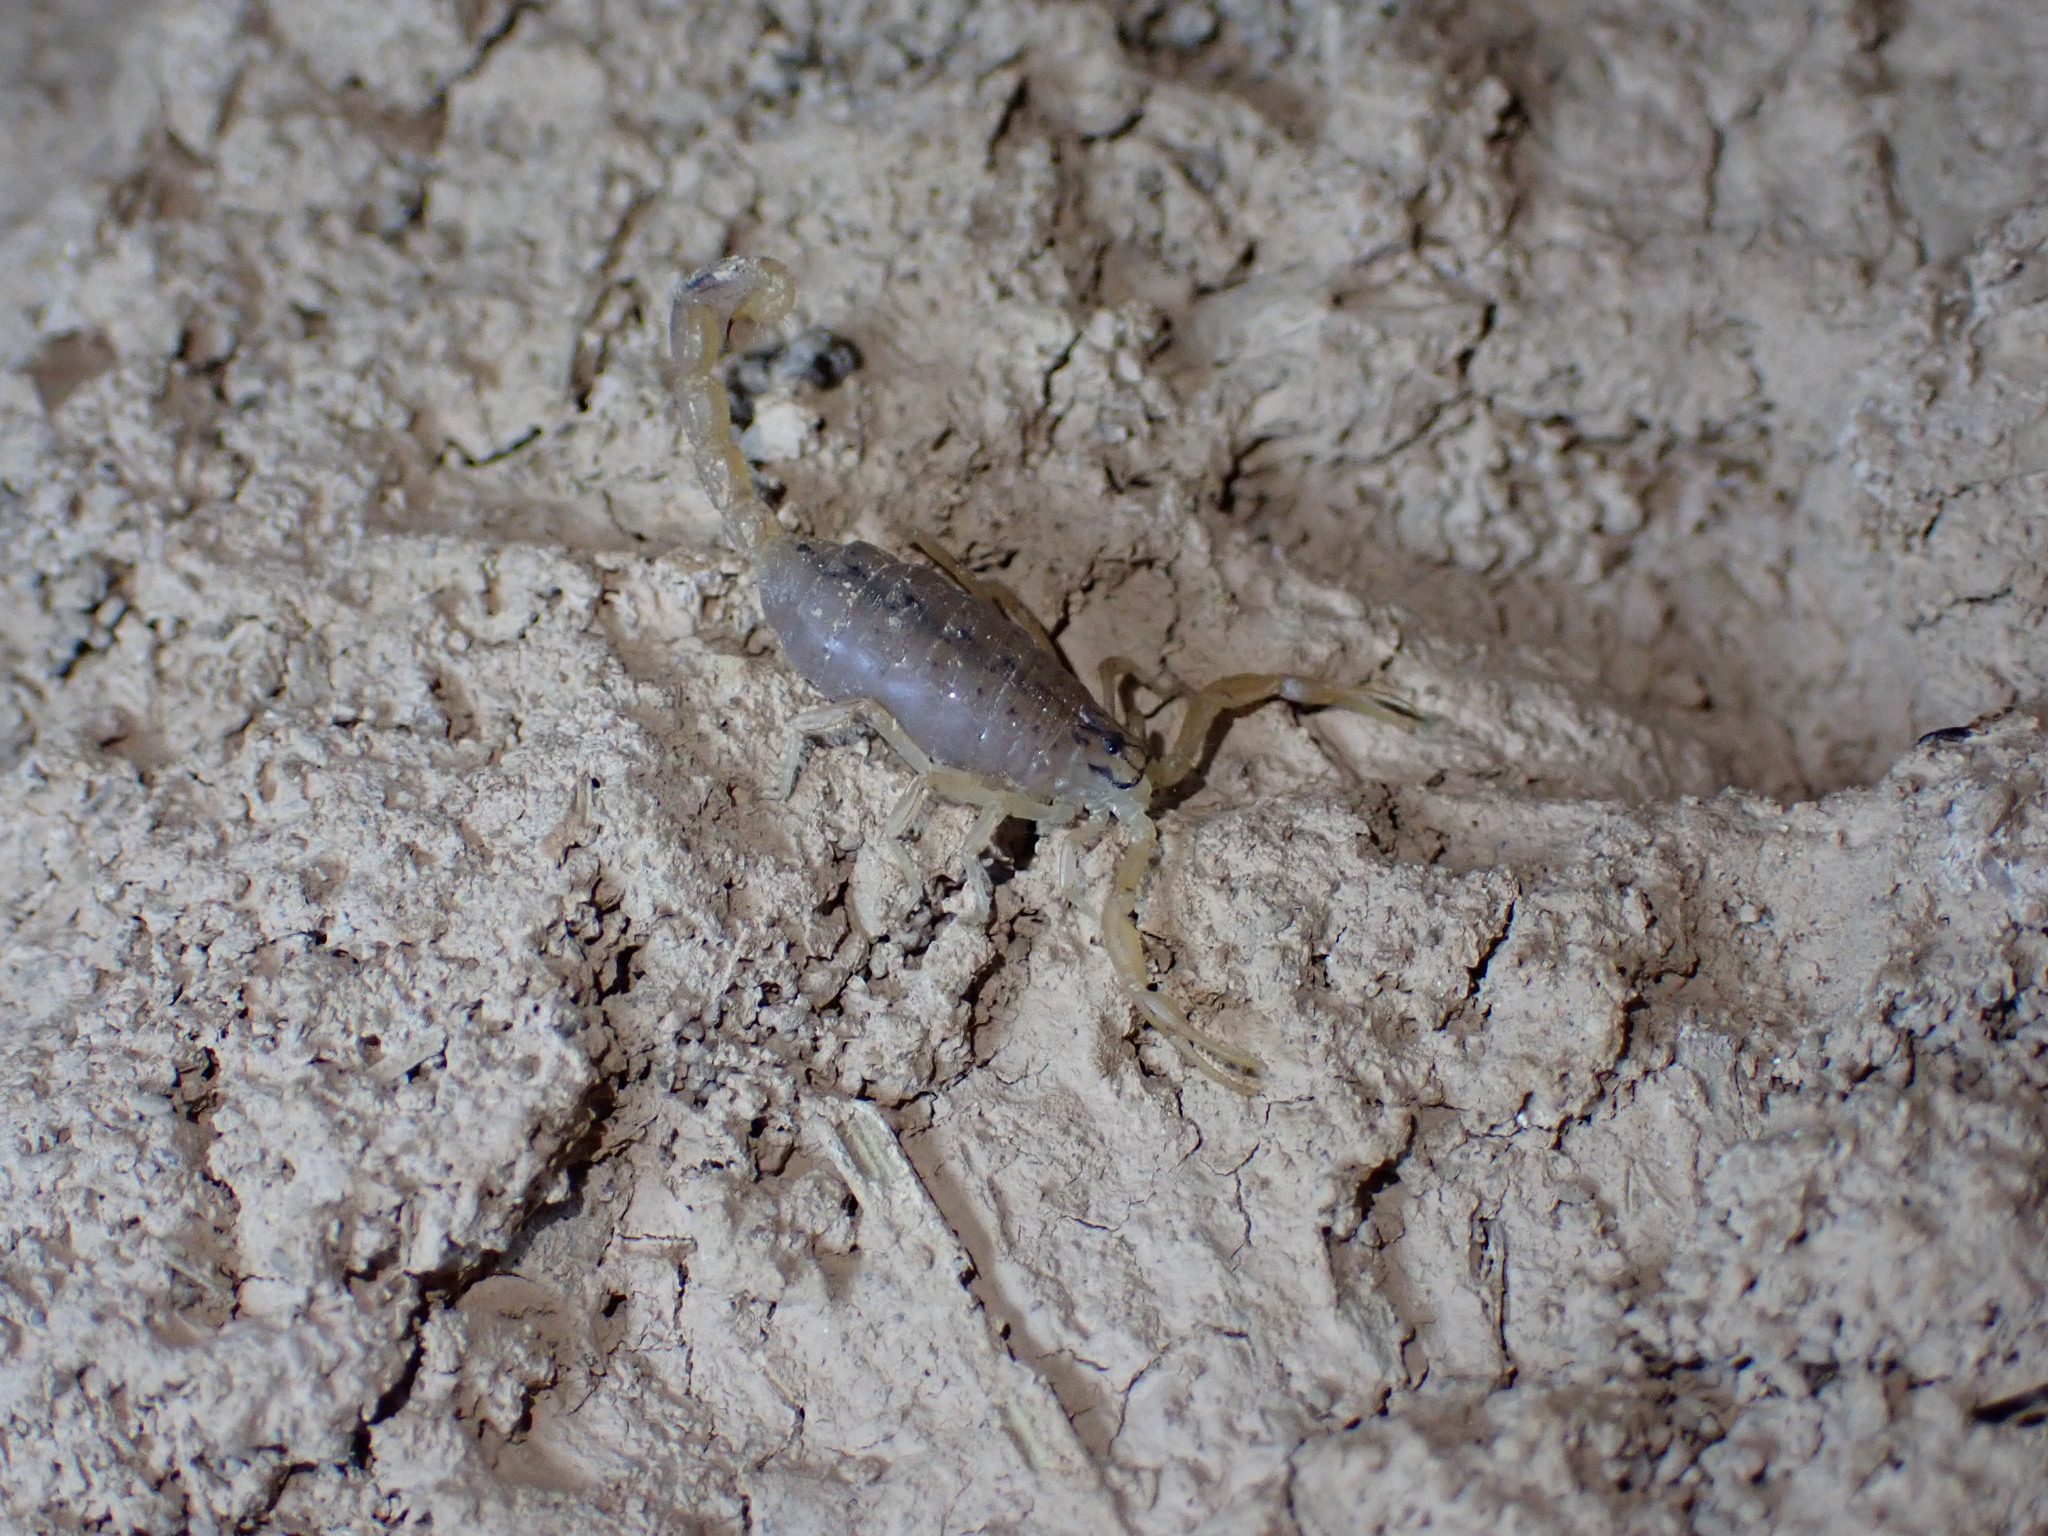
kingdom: Animalia
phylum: Arthropoda
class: Arachnida
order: Scorpiones
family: Buthidae
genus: Mesobuthus
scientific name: Mesobuthus crucittii
